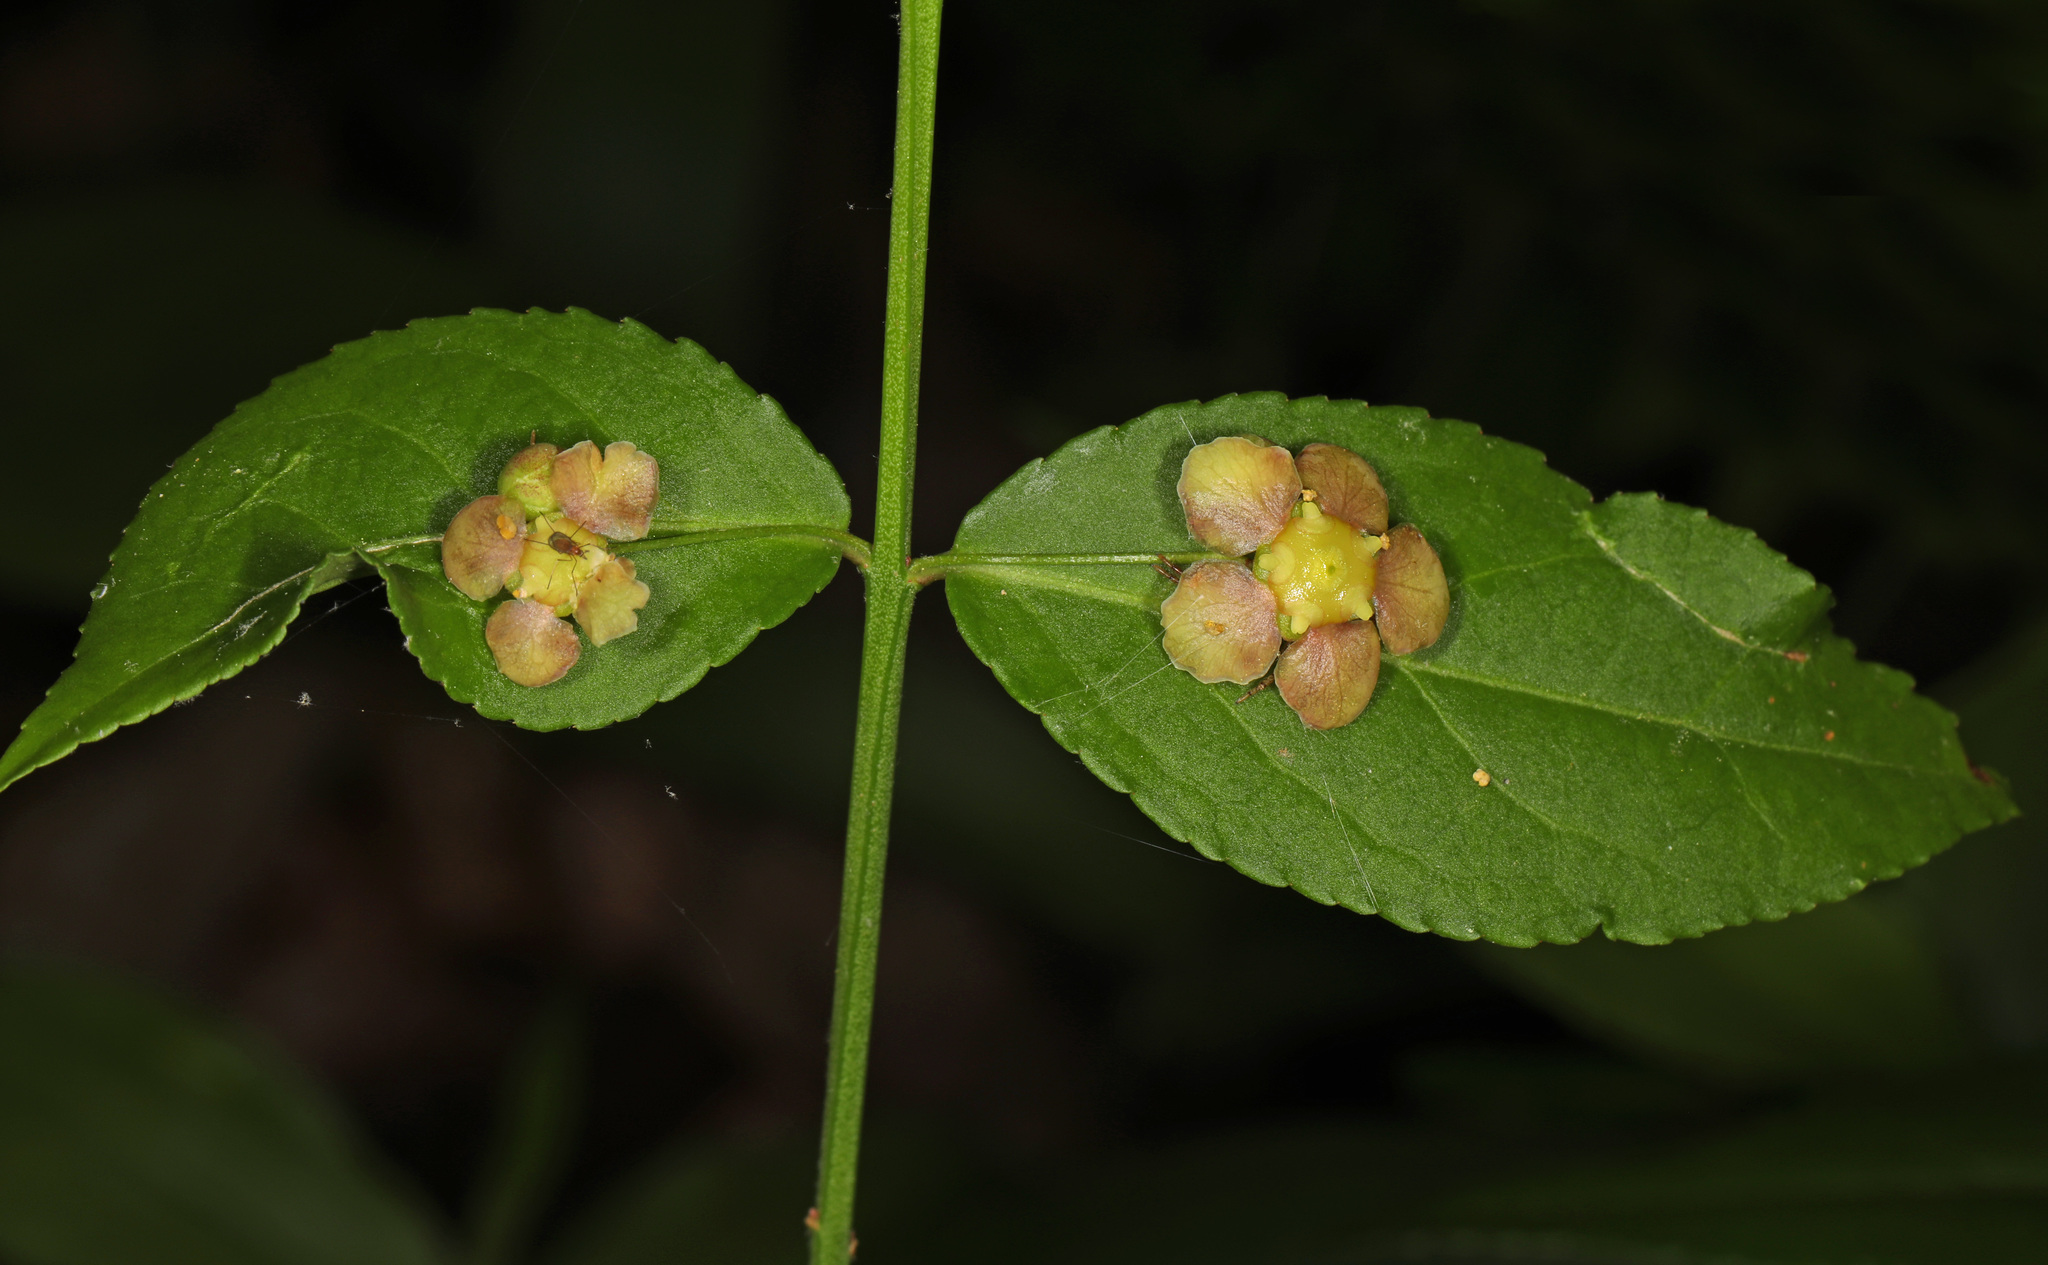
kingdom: Plantae
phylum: Tracheophyta
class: Magnoliopsida
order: Celastrales
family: Celastraceae
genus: Euonymus
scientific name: Euonymus americanus
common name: Bursting-heart
